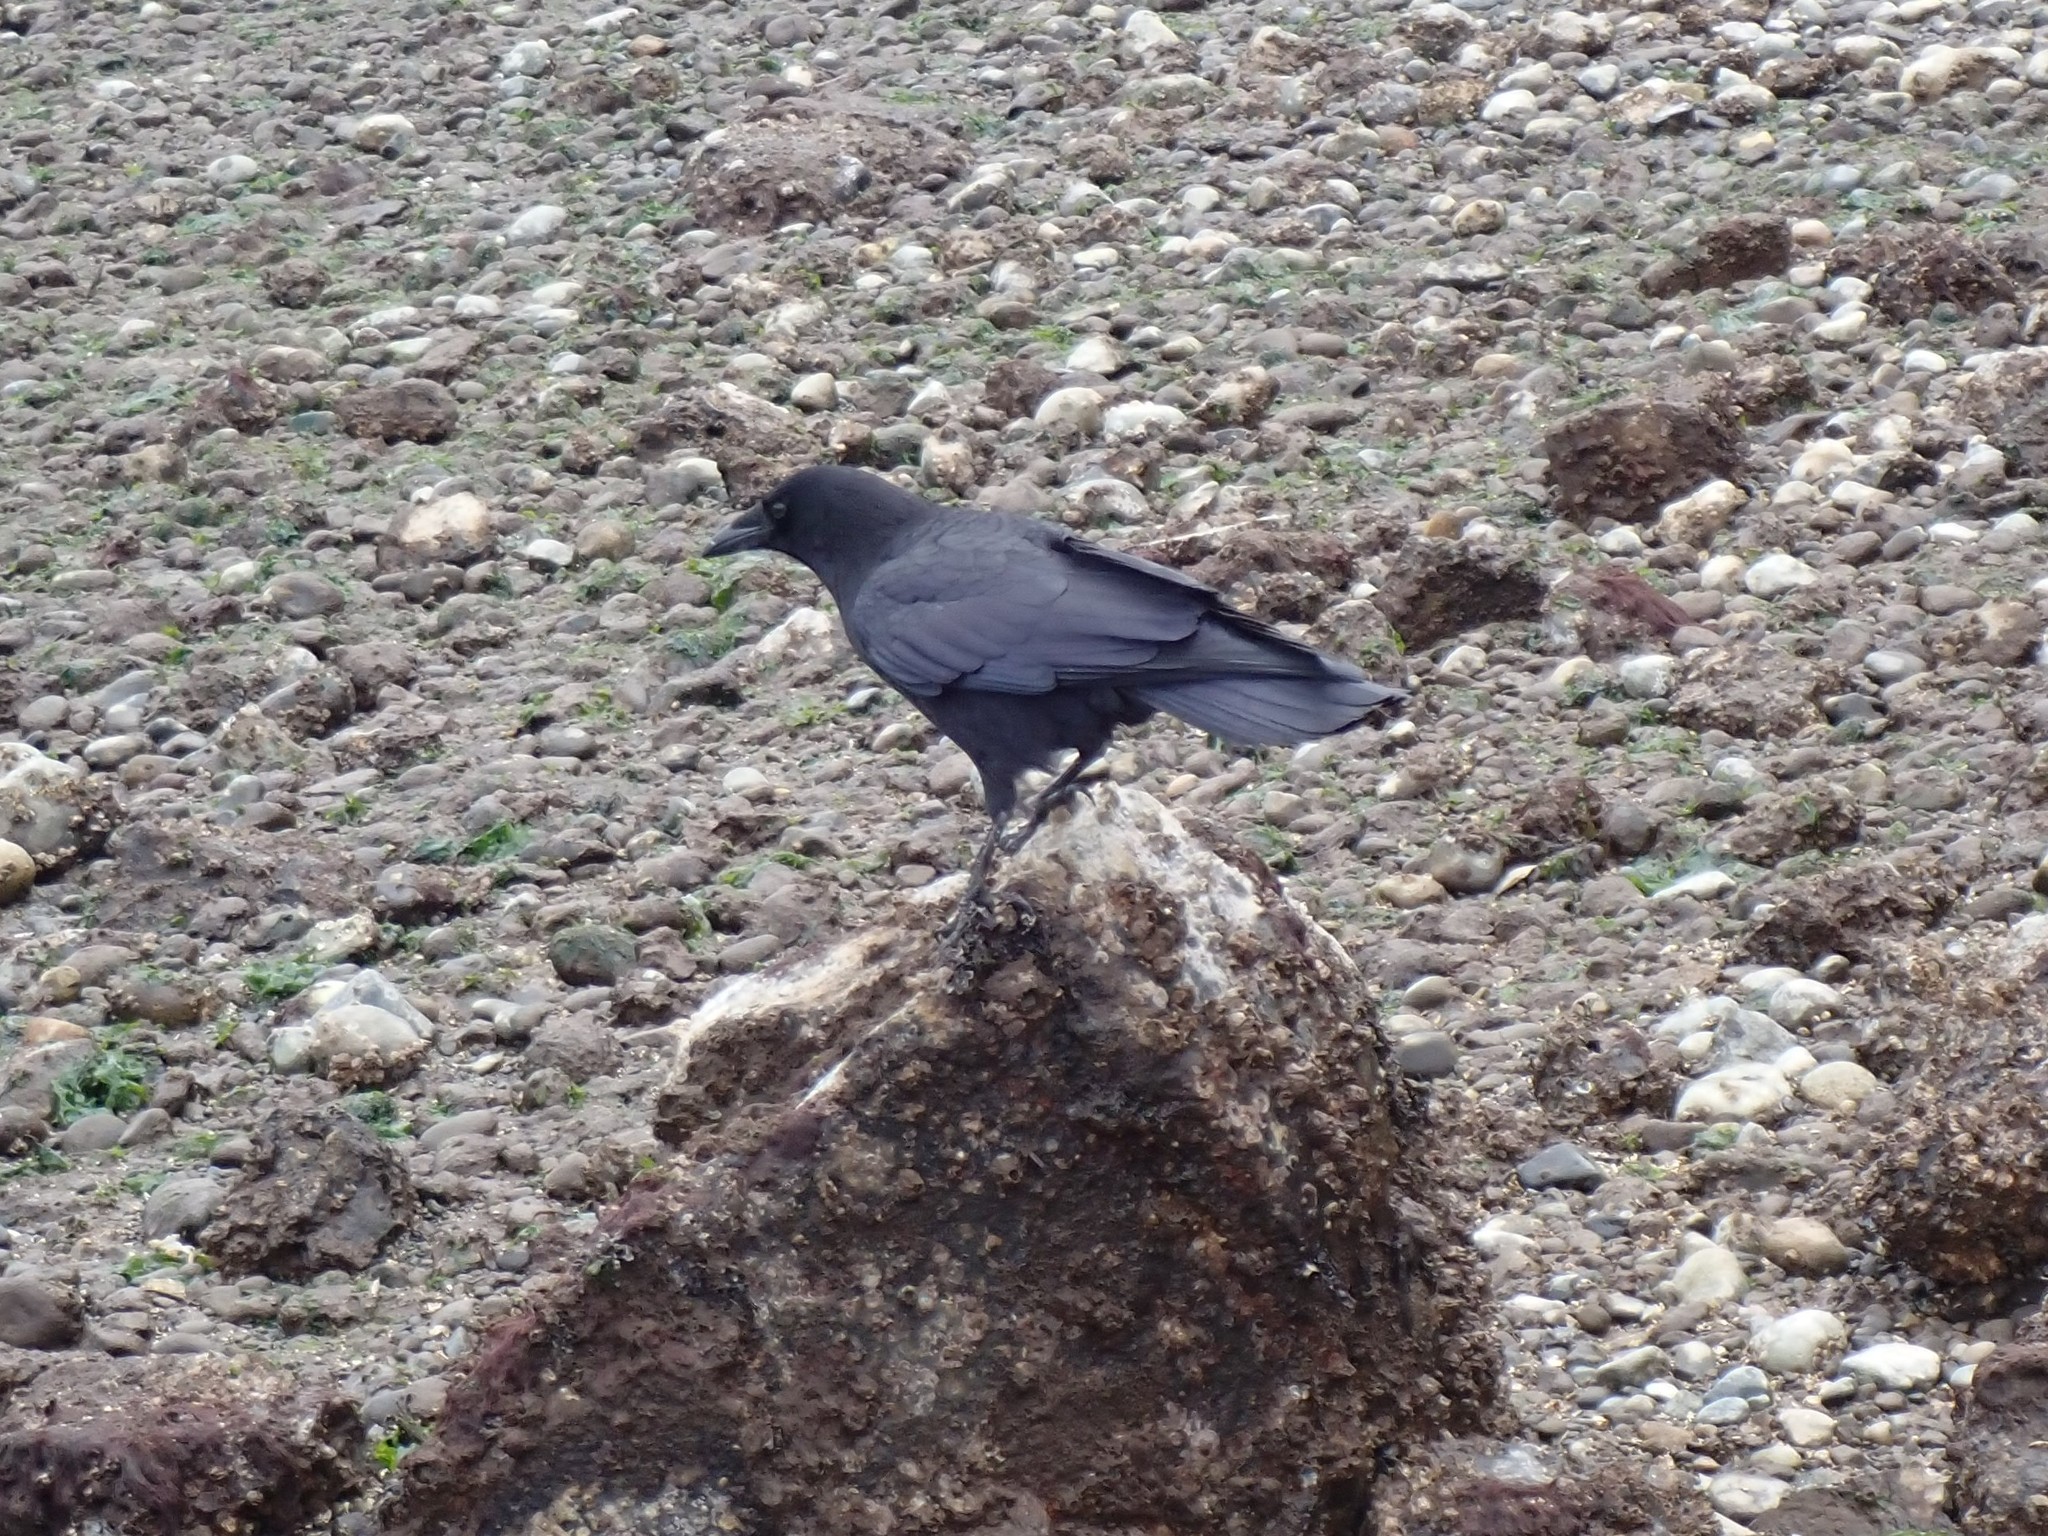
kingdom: Animalia
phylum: Chordata
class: Aves
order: Passeriformes
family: Corvidae
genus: Corvus
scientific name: Corvus brachyrhynchos
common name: American crow
